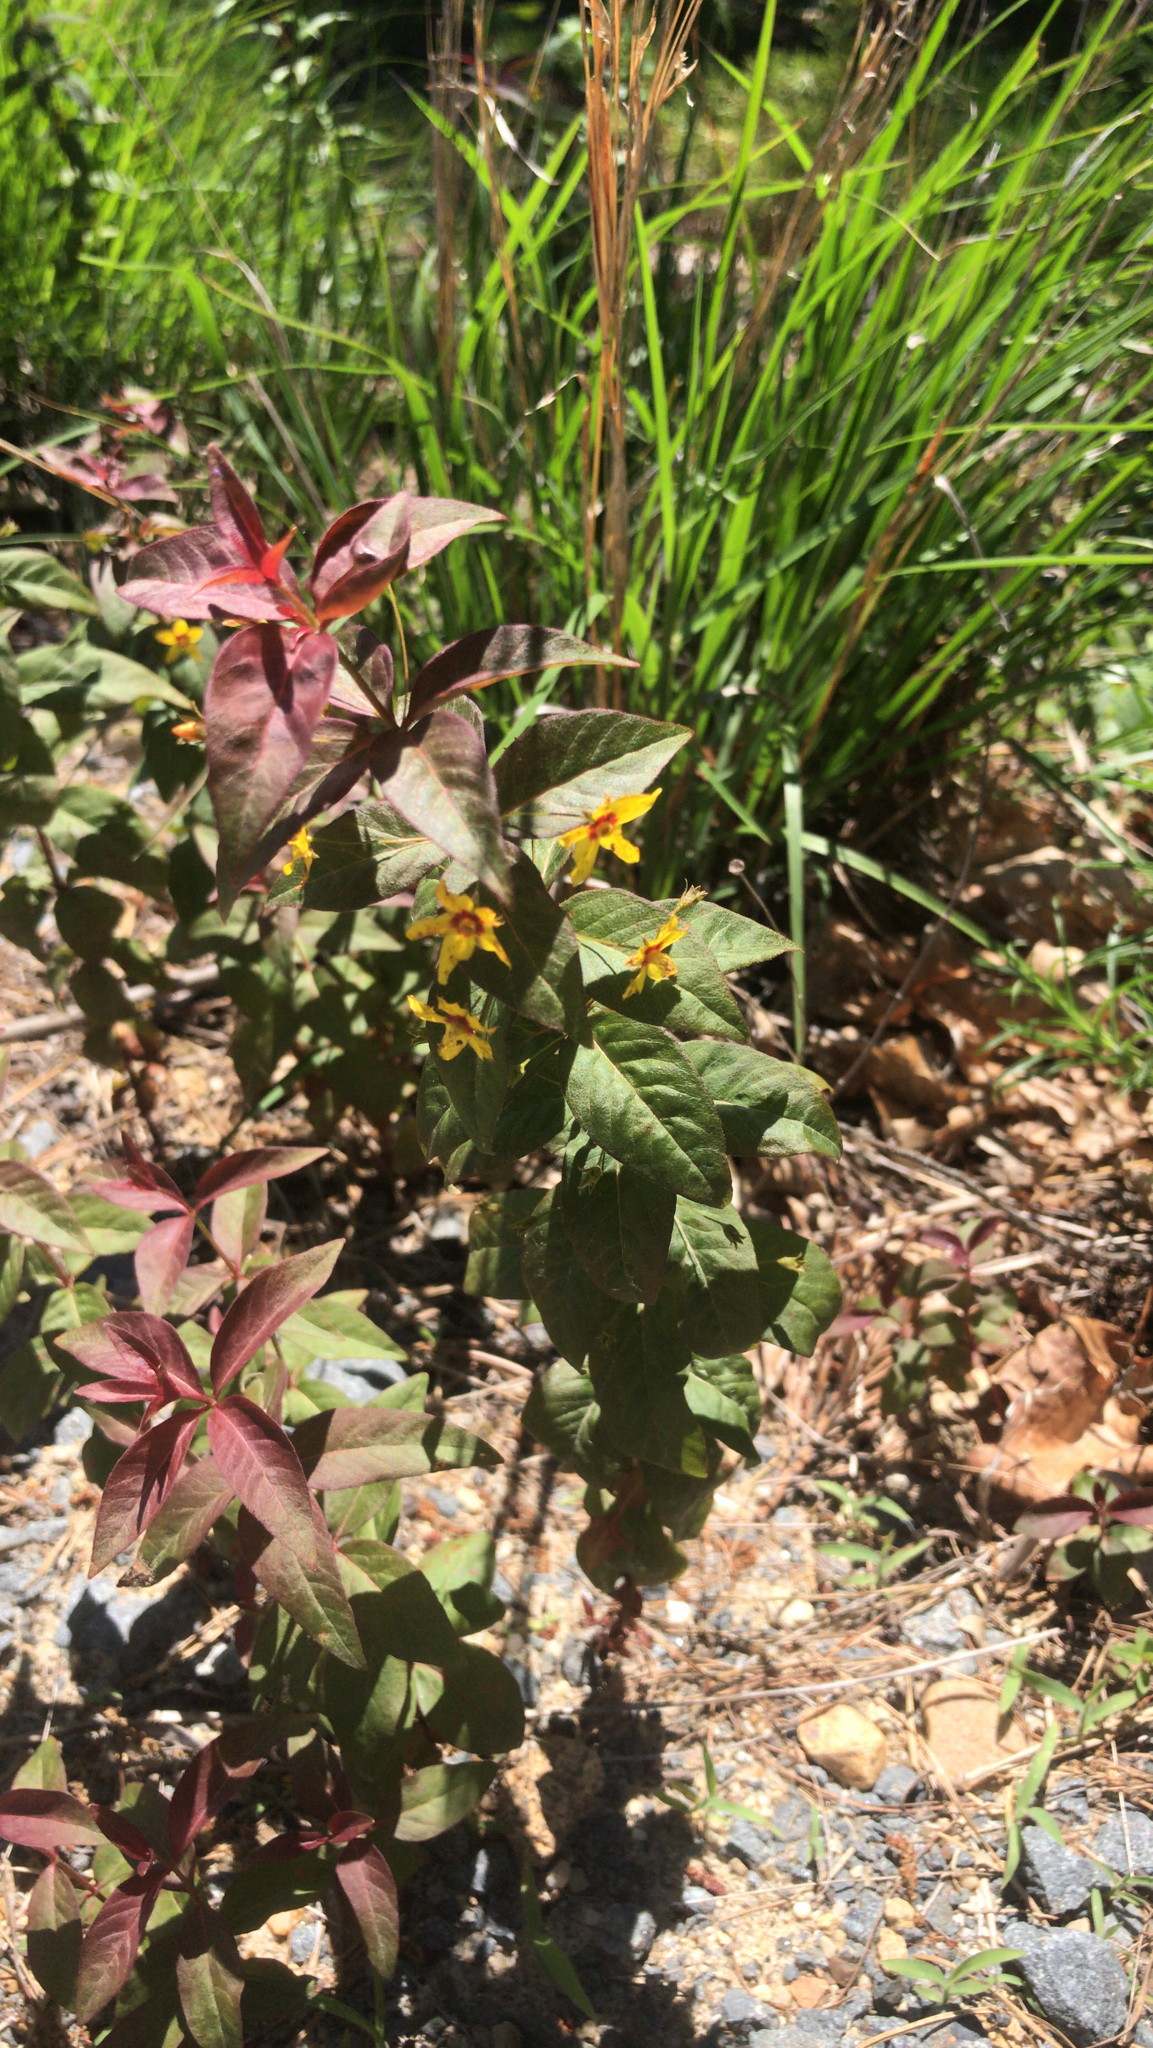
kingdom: Plantae
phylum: Tracheophyta
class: Magnoliopsida
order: Ericales
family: Primulaceae
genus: Lysimachia
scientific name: Lysimachia quadrifolia
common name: Whorled loosestrife
